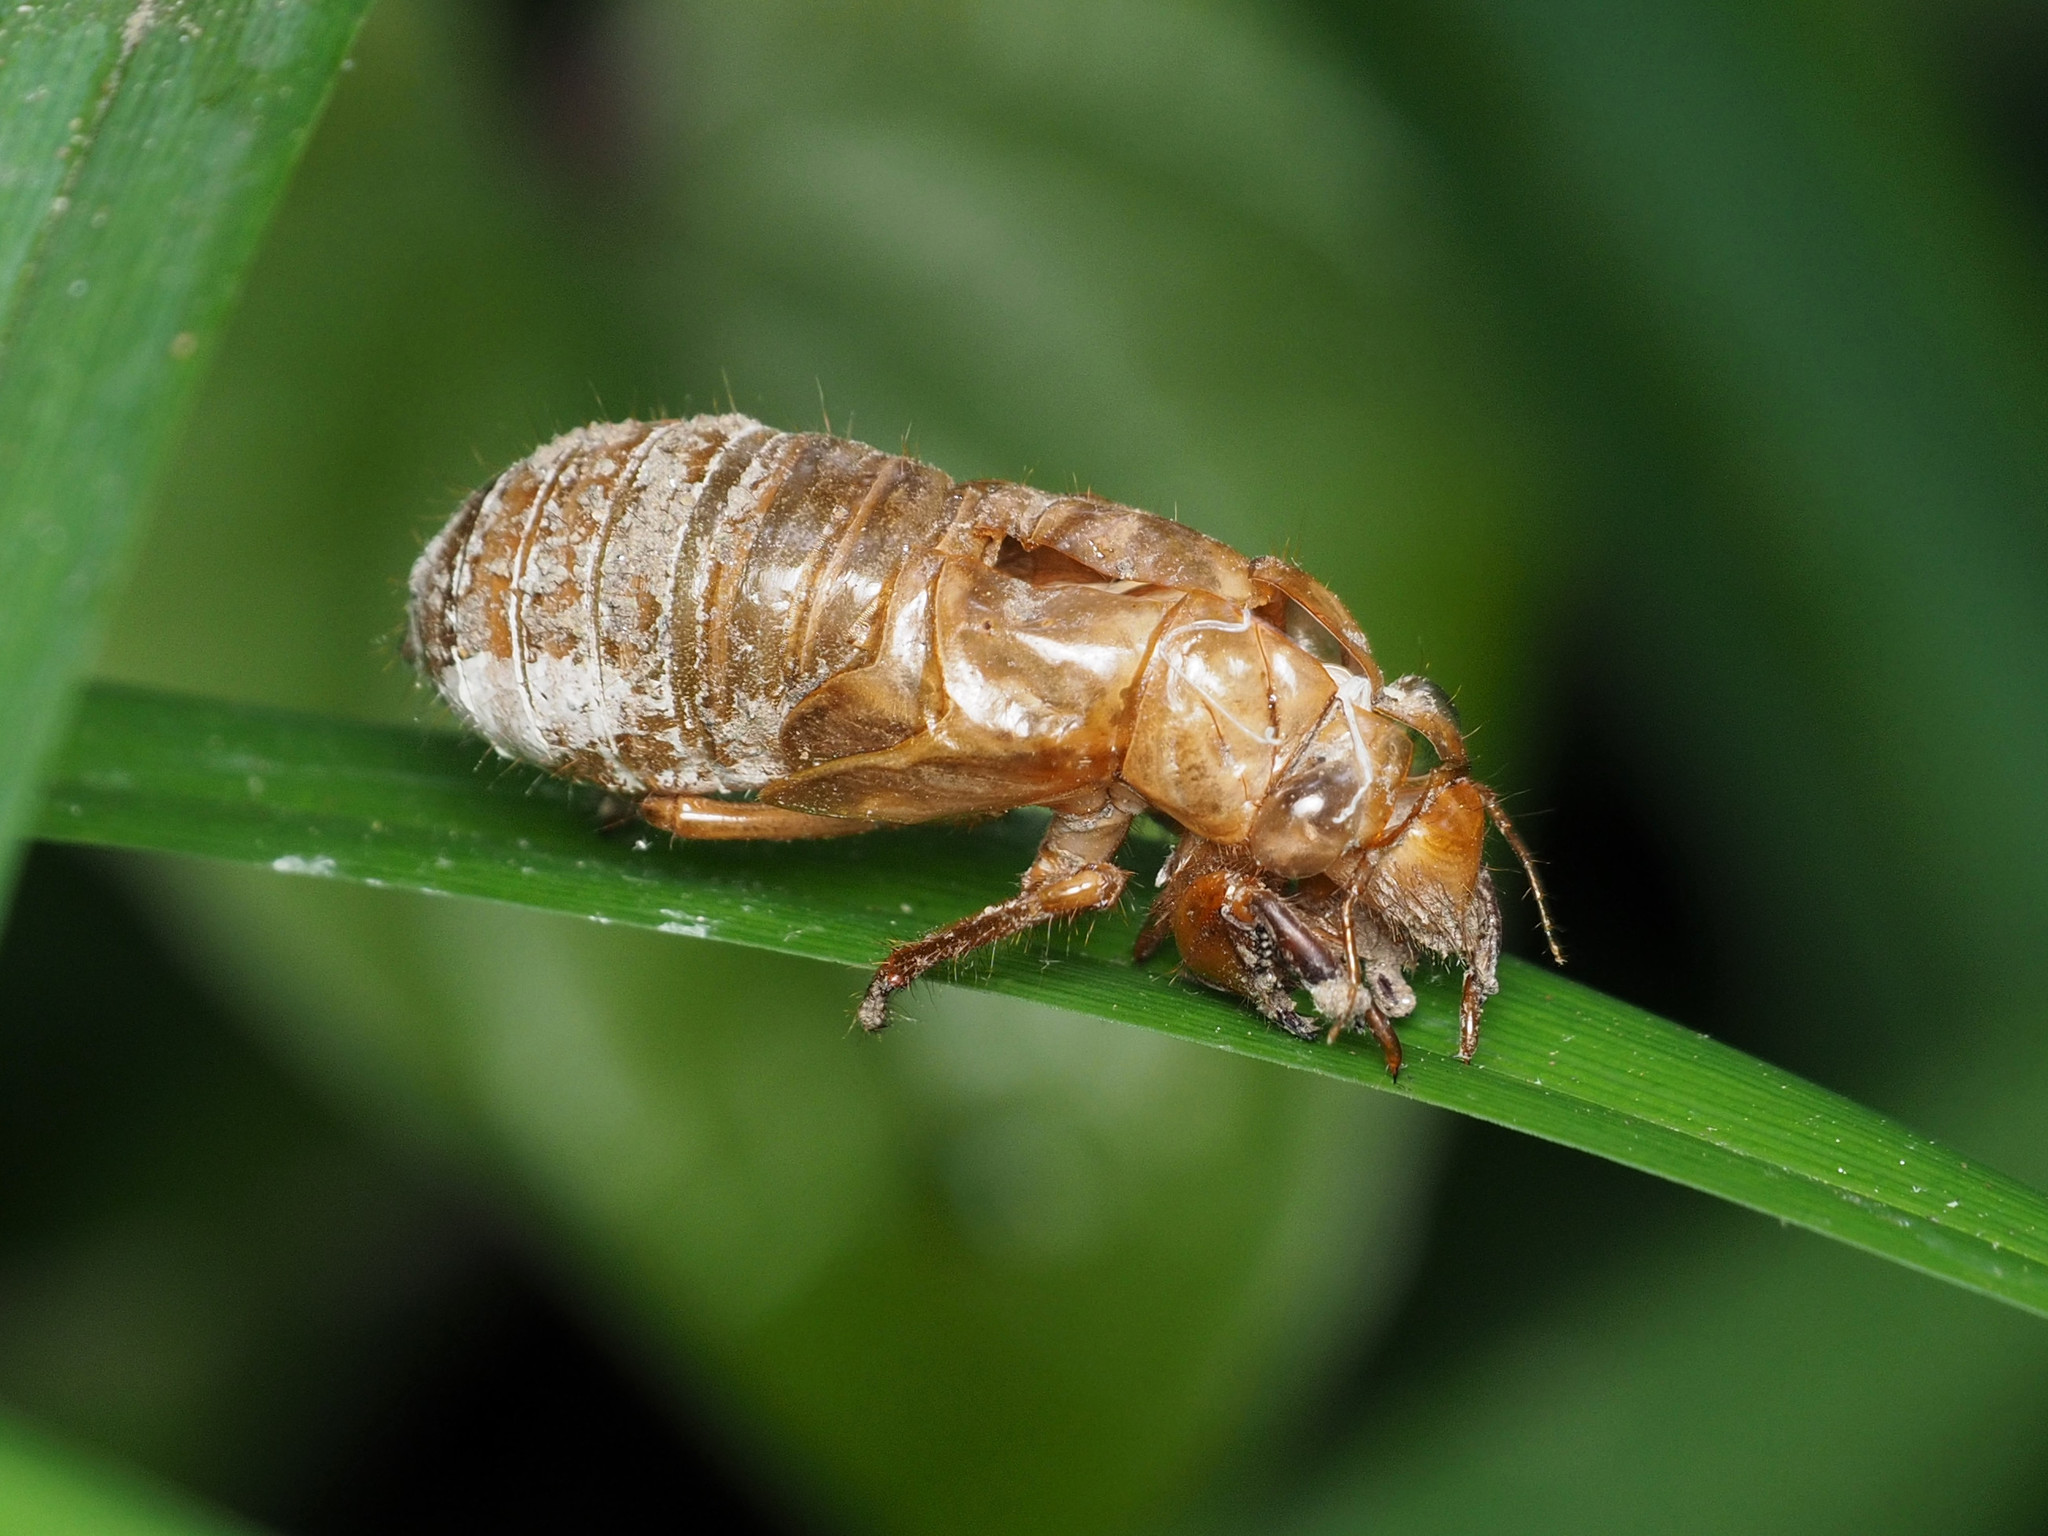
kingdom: Animalia
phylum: Arthropoda
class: Insecta
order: Hemiptera
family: Cicadidae
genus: Magicicada
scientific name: Magicicada
